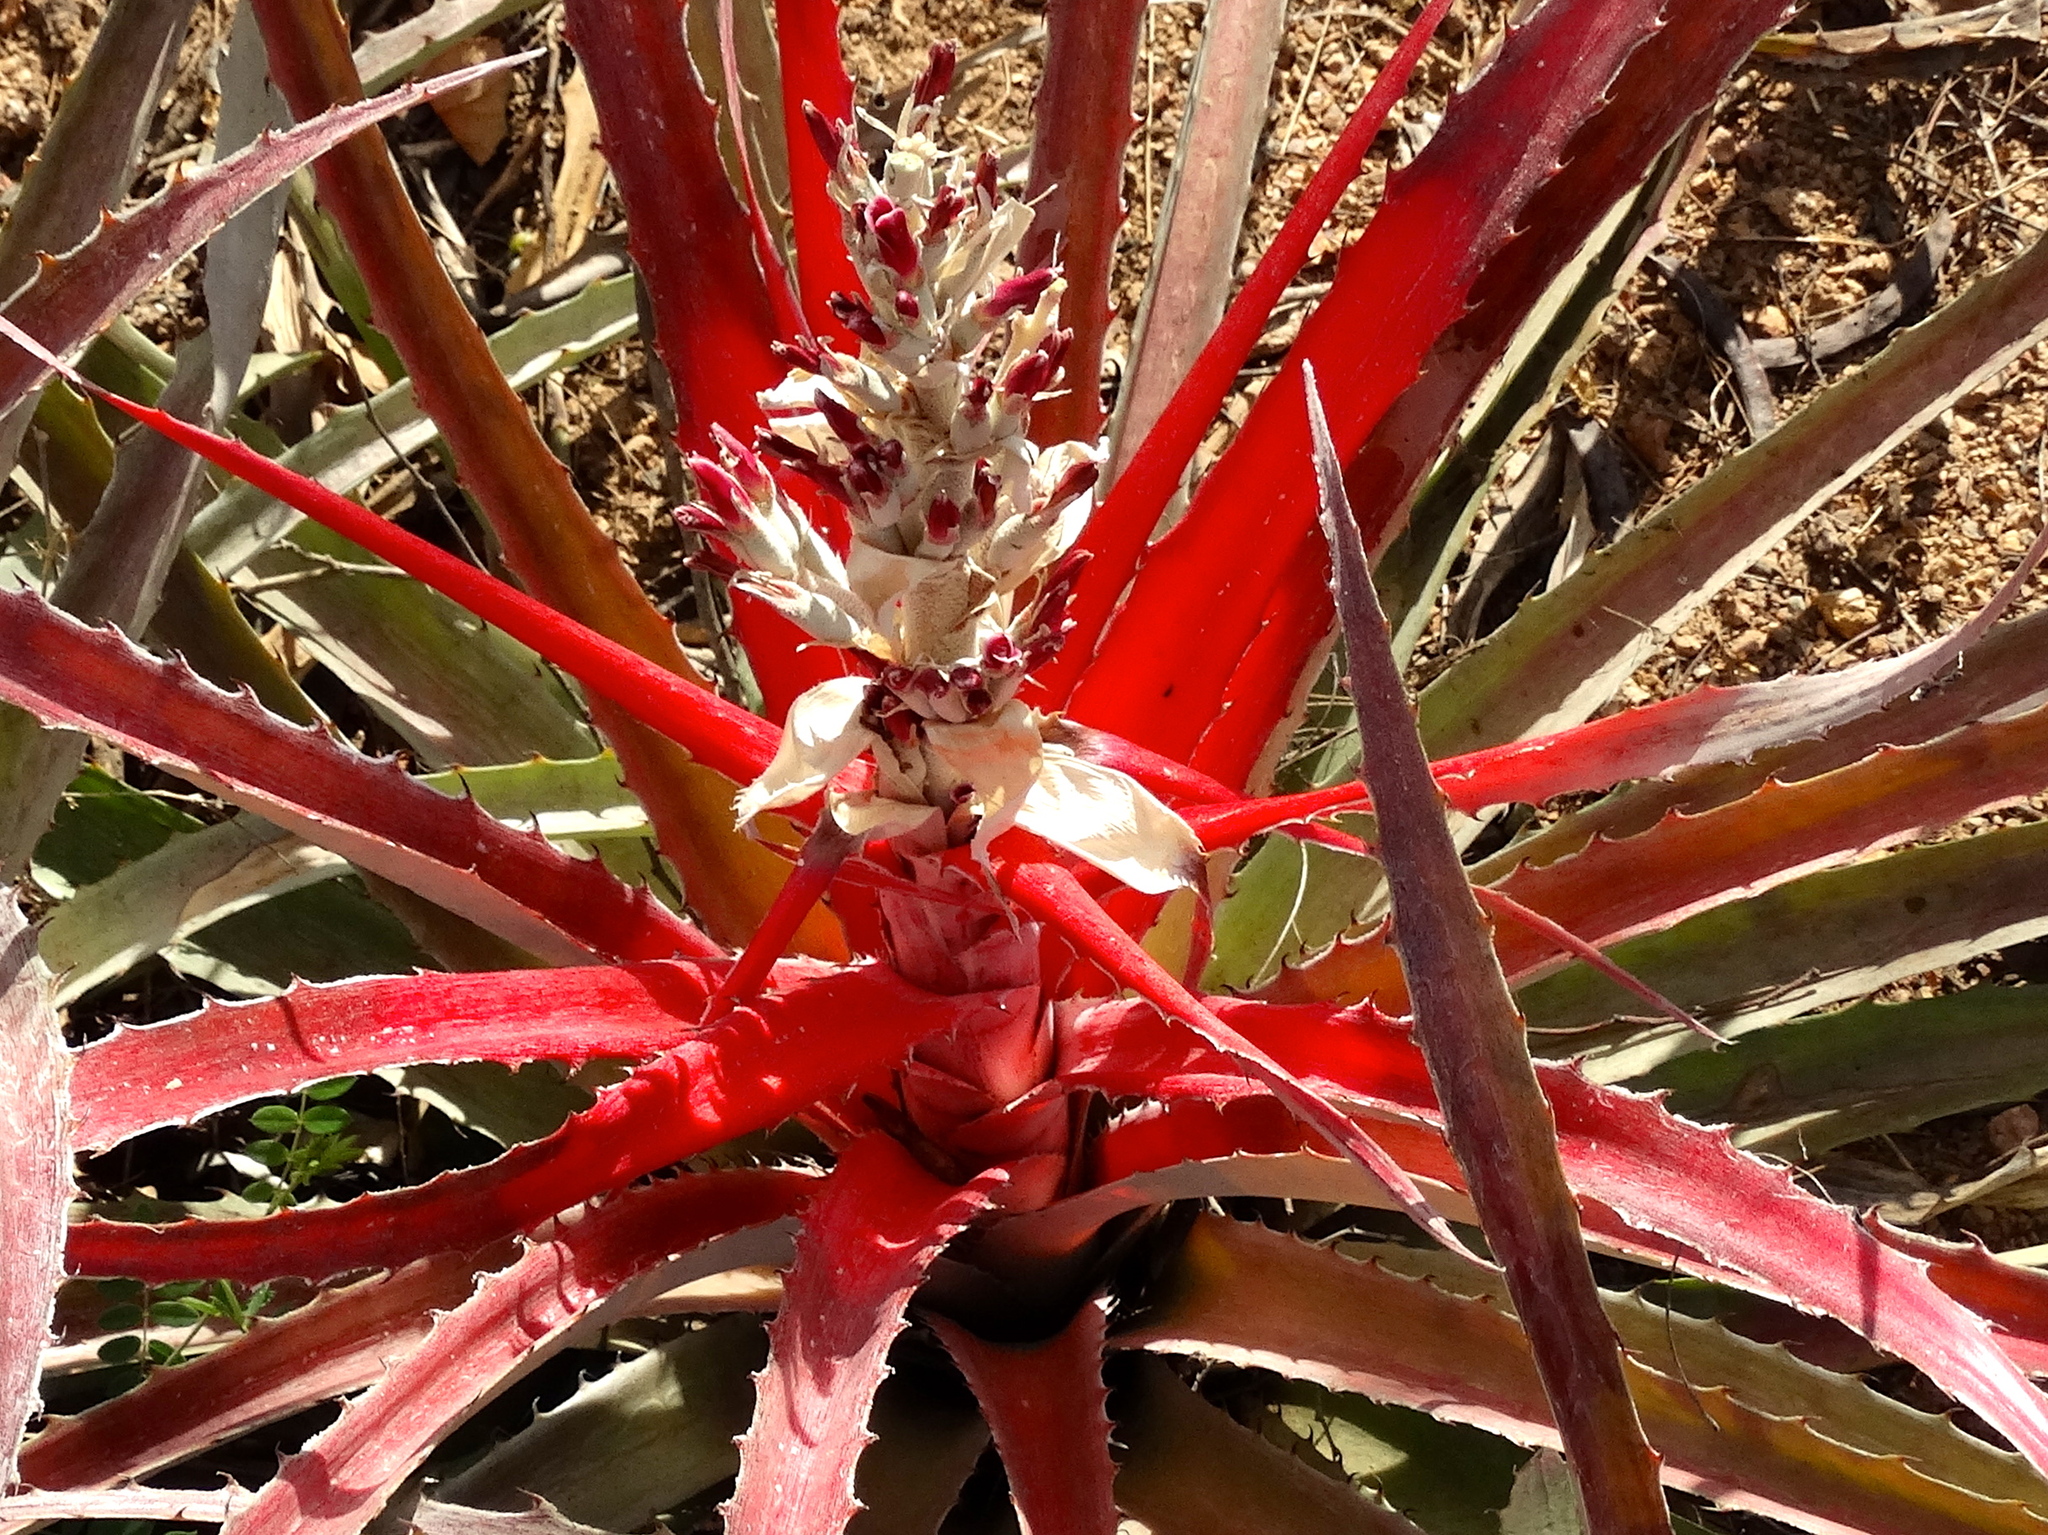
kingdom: Plantae
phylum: Tracheophyta
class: Liliopsida
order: Poales
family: Bromeliaceae
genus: Bromelia
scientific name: Bromelia pinguin
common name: Pinguin
